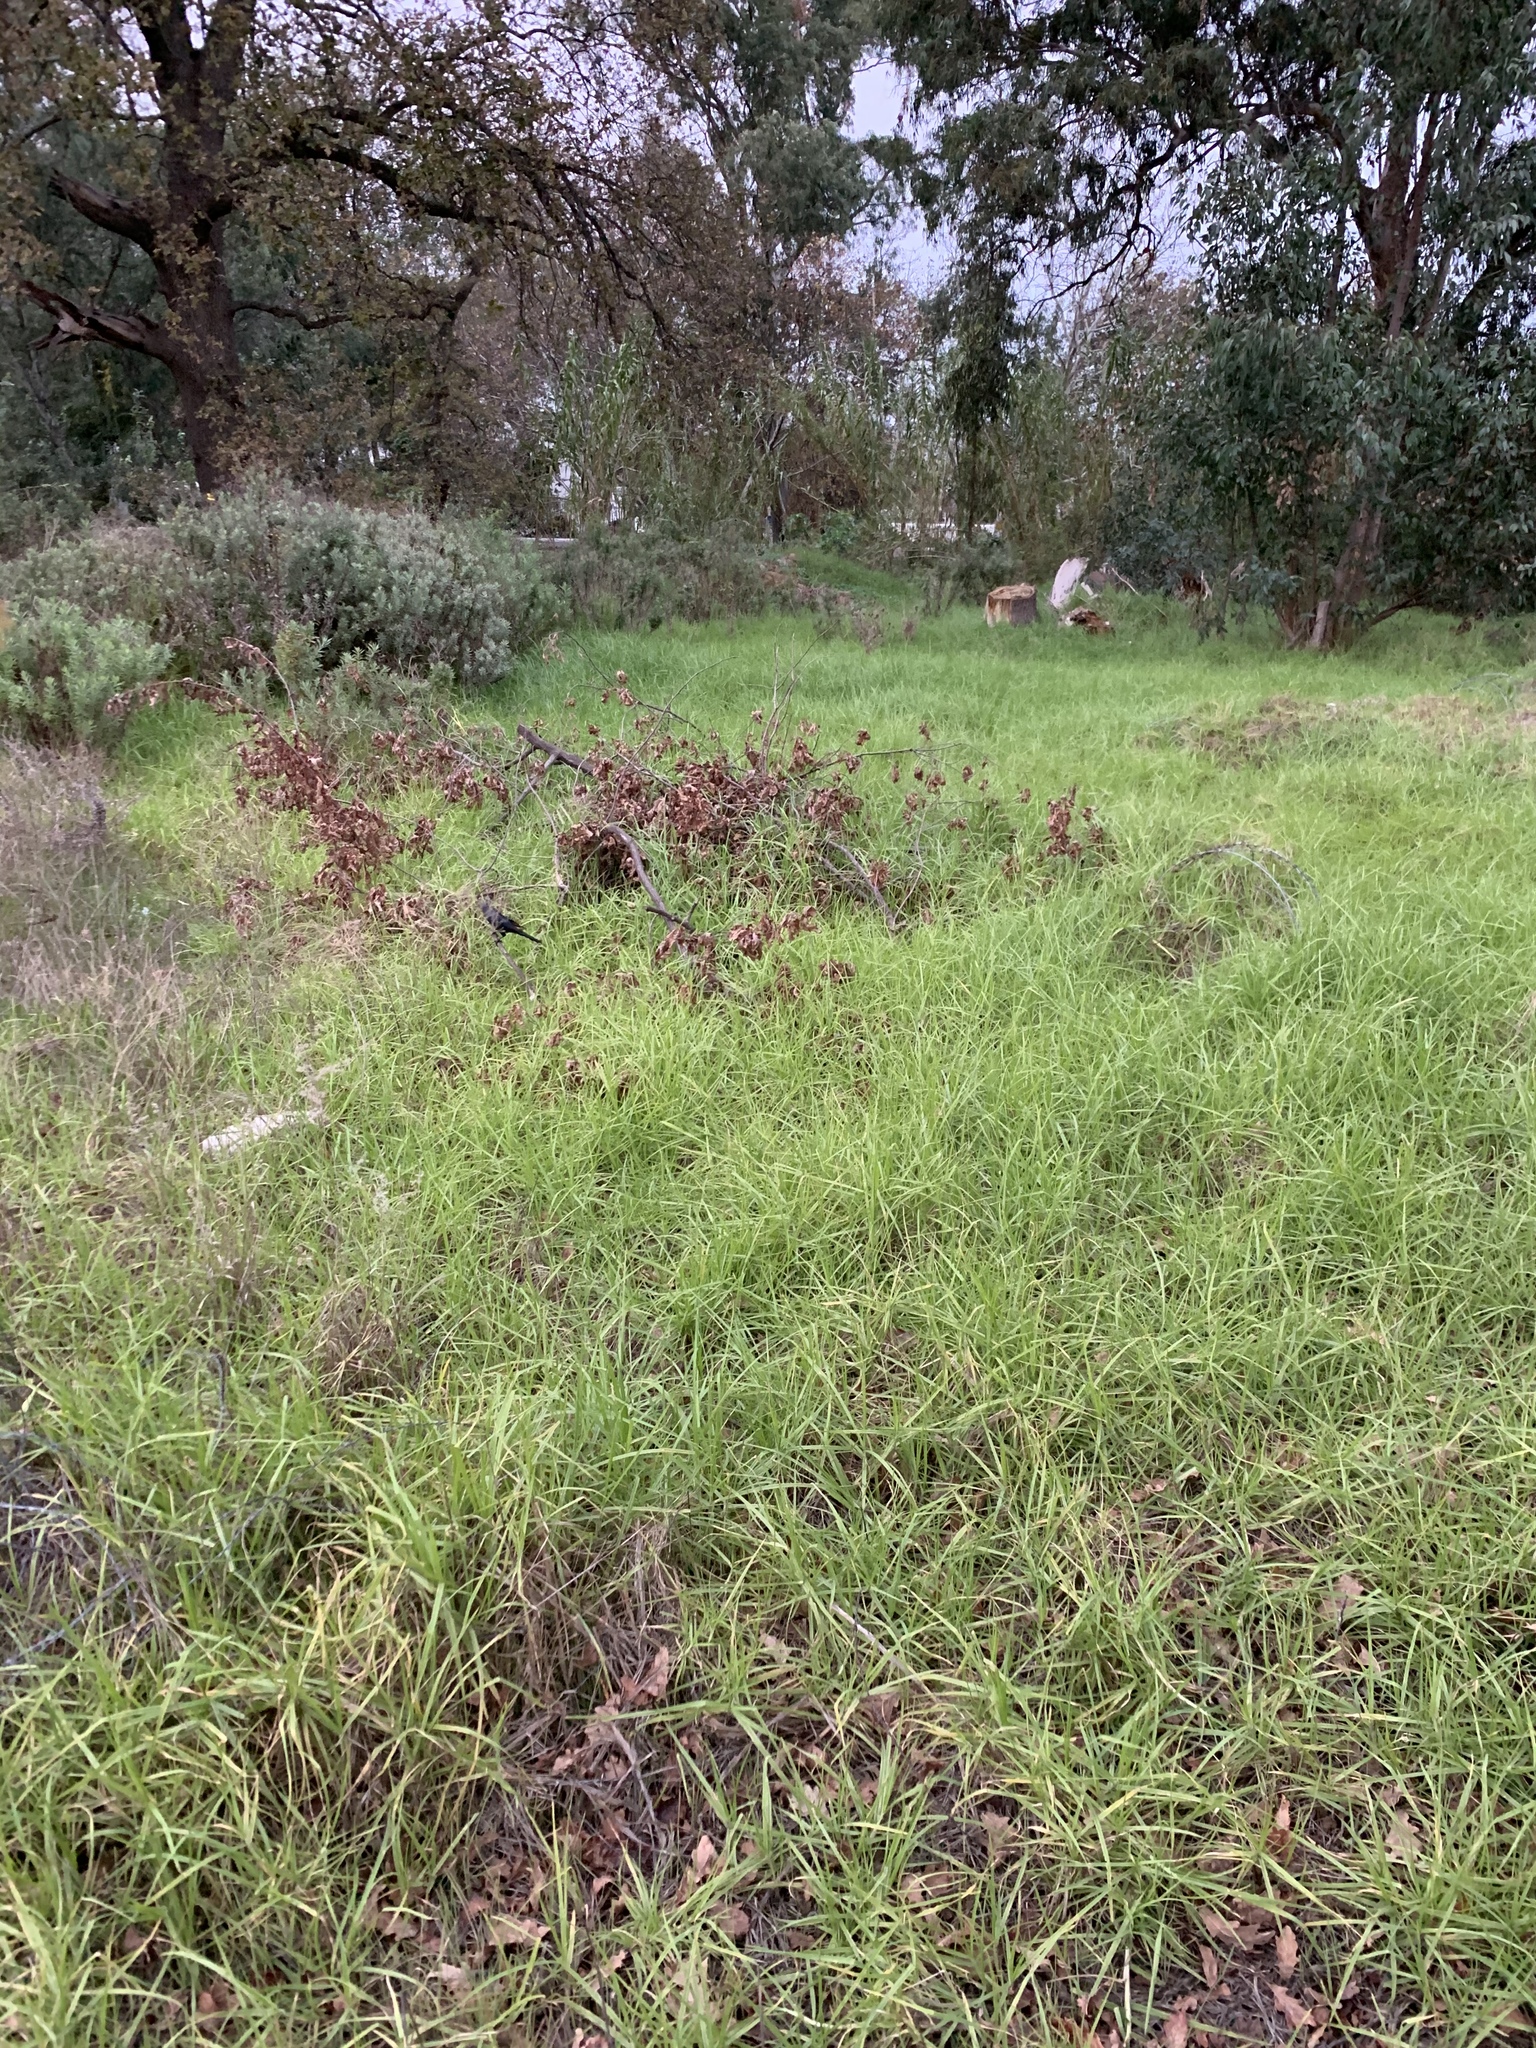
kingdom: Plantae
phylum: Tracheophyta
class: Liliopsida
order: Poales
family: Poaceae
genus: Cenchrus
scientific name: Cenchrus clandestinus
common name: Kikuyugrass
